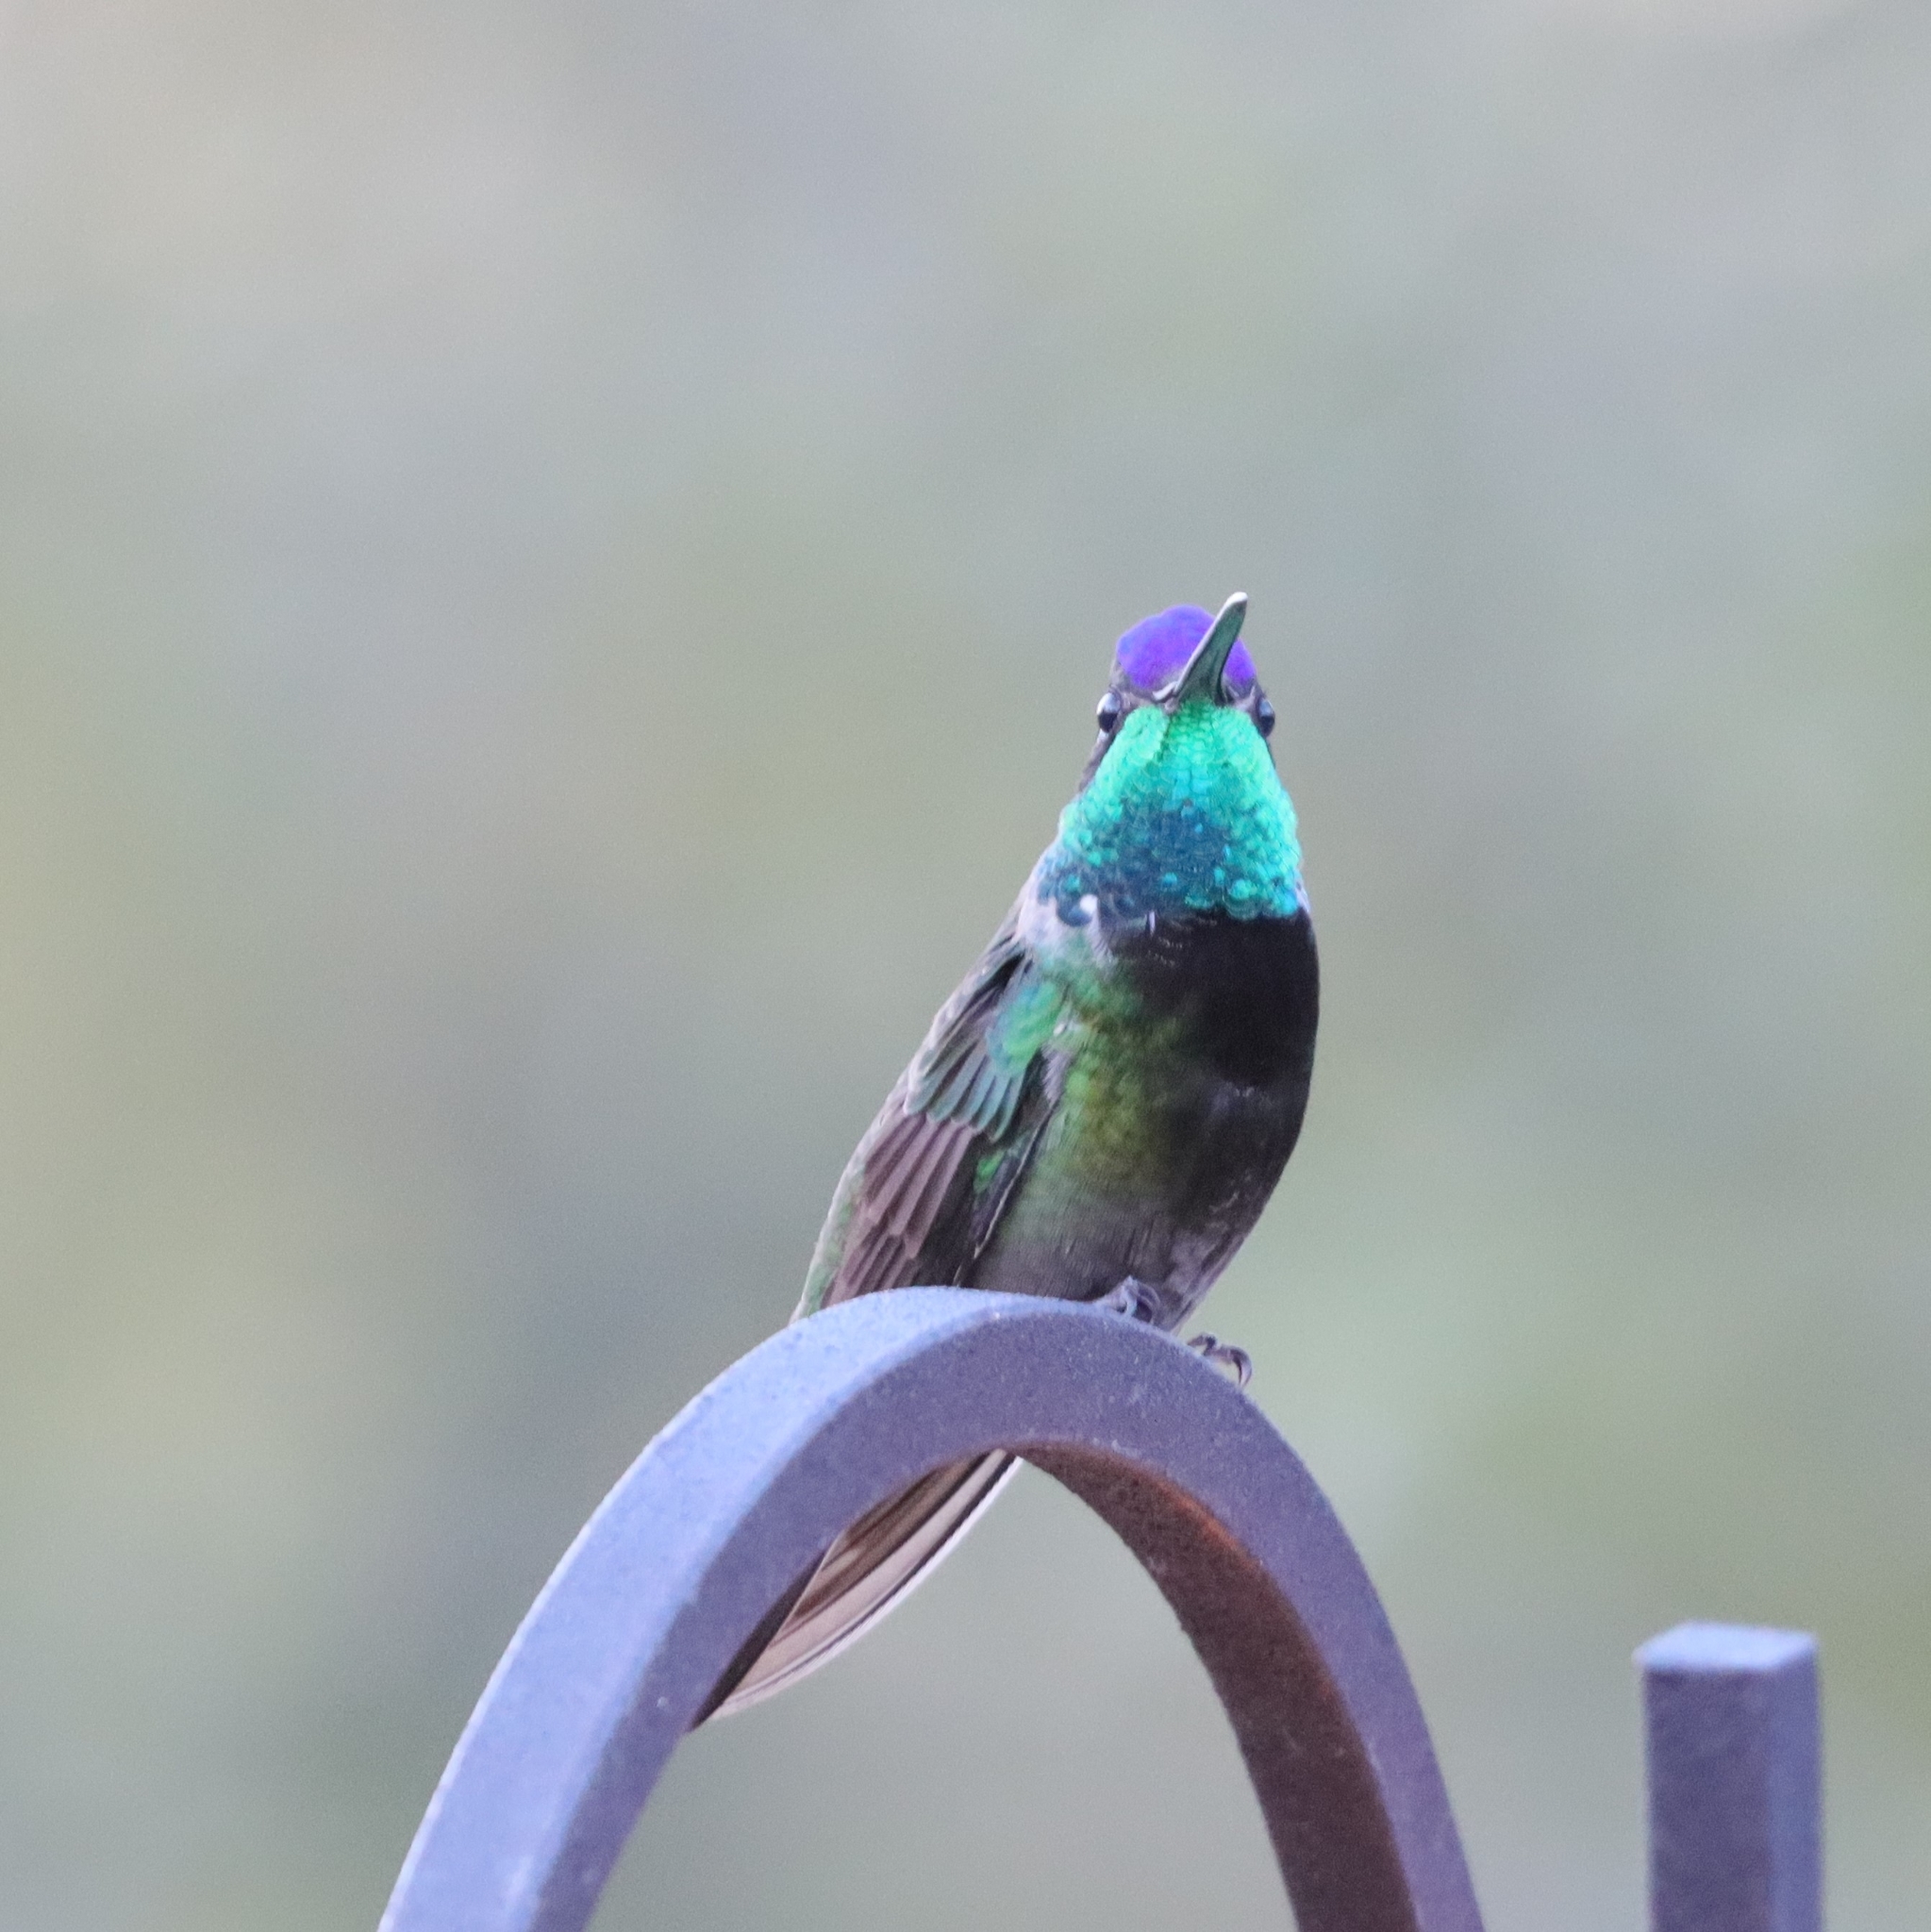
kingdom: Animalia
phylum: Chordata
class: Aves
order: Apodiformes
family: Trochilidae
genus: Eugenes
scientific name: Eugenes fulgens
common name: Magnificent hummingbird
